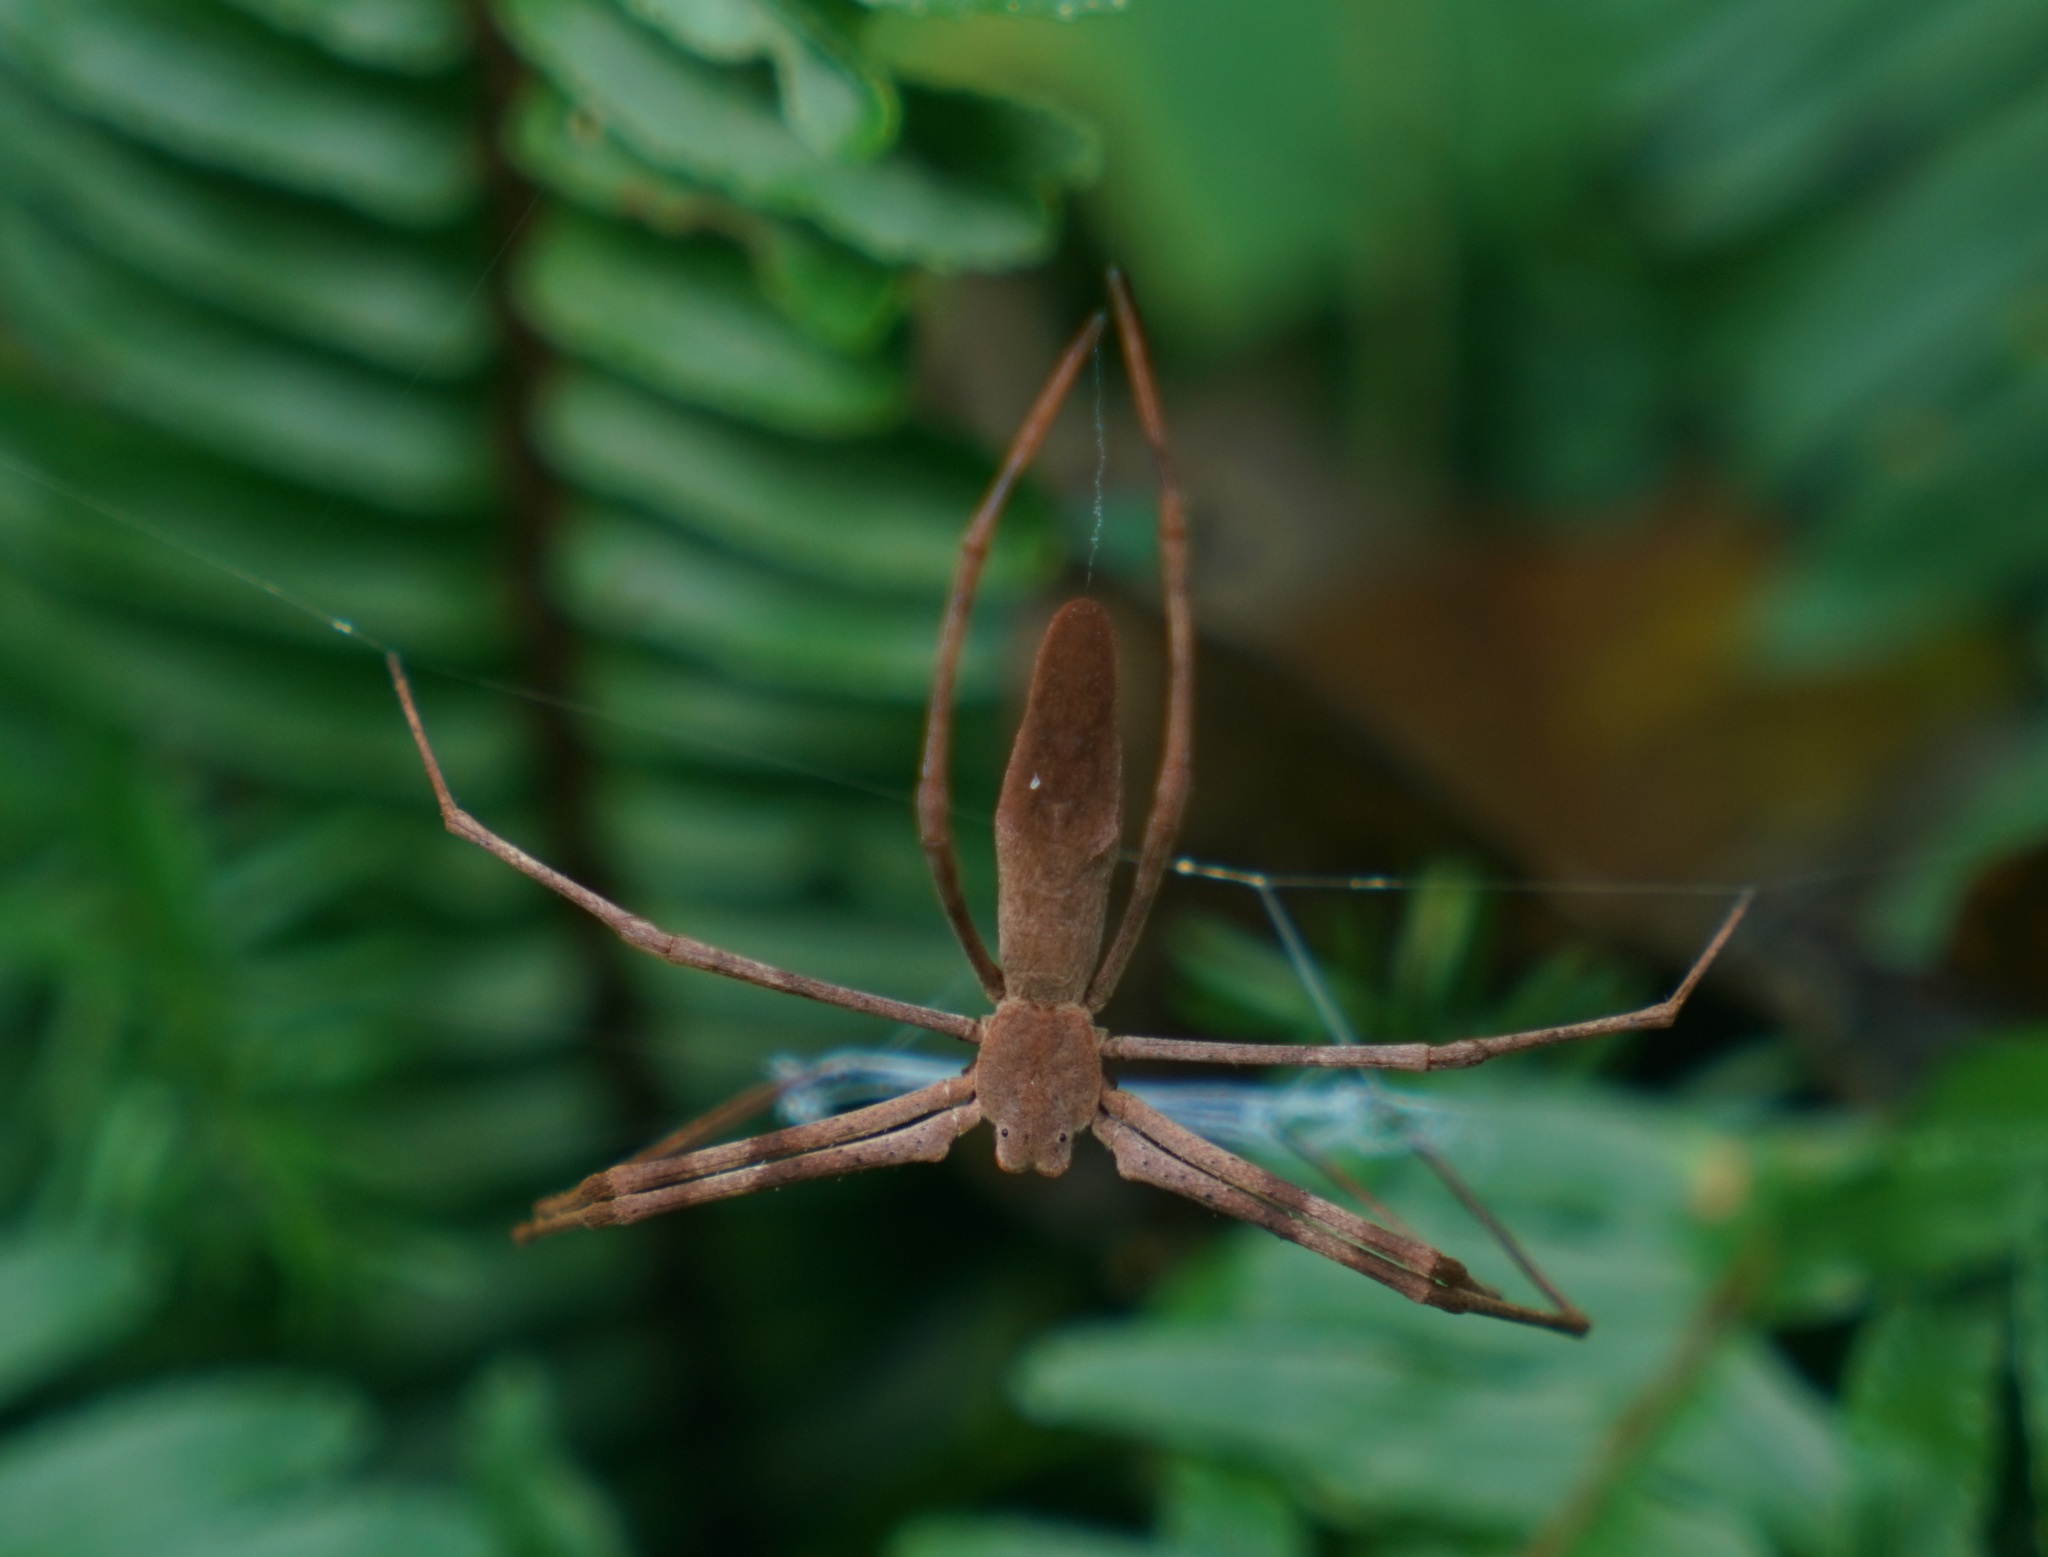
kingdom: Animalia
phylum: Arthropoda
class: Arachnida
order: Araneae
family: Deinopidae
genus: Deinopis
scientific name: Deinopis subrufa
